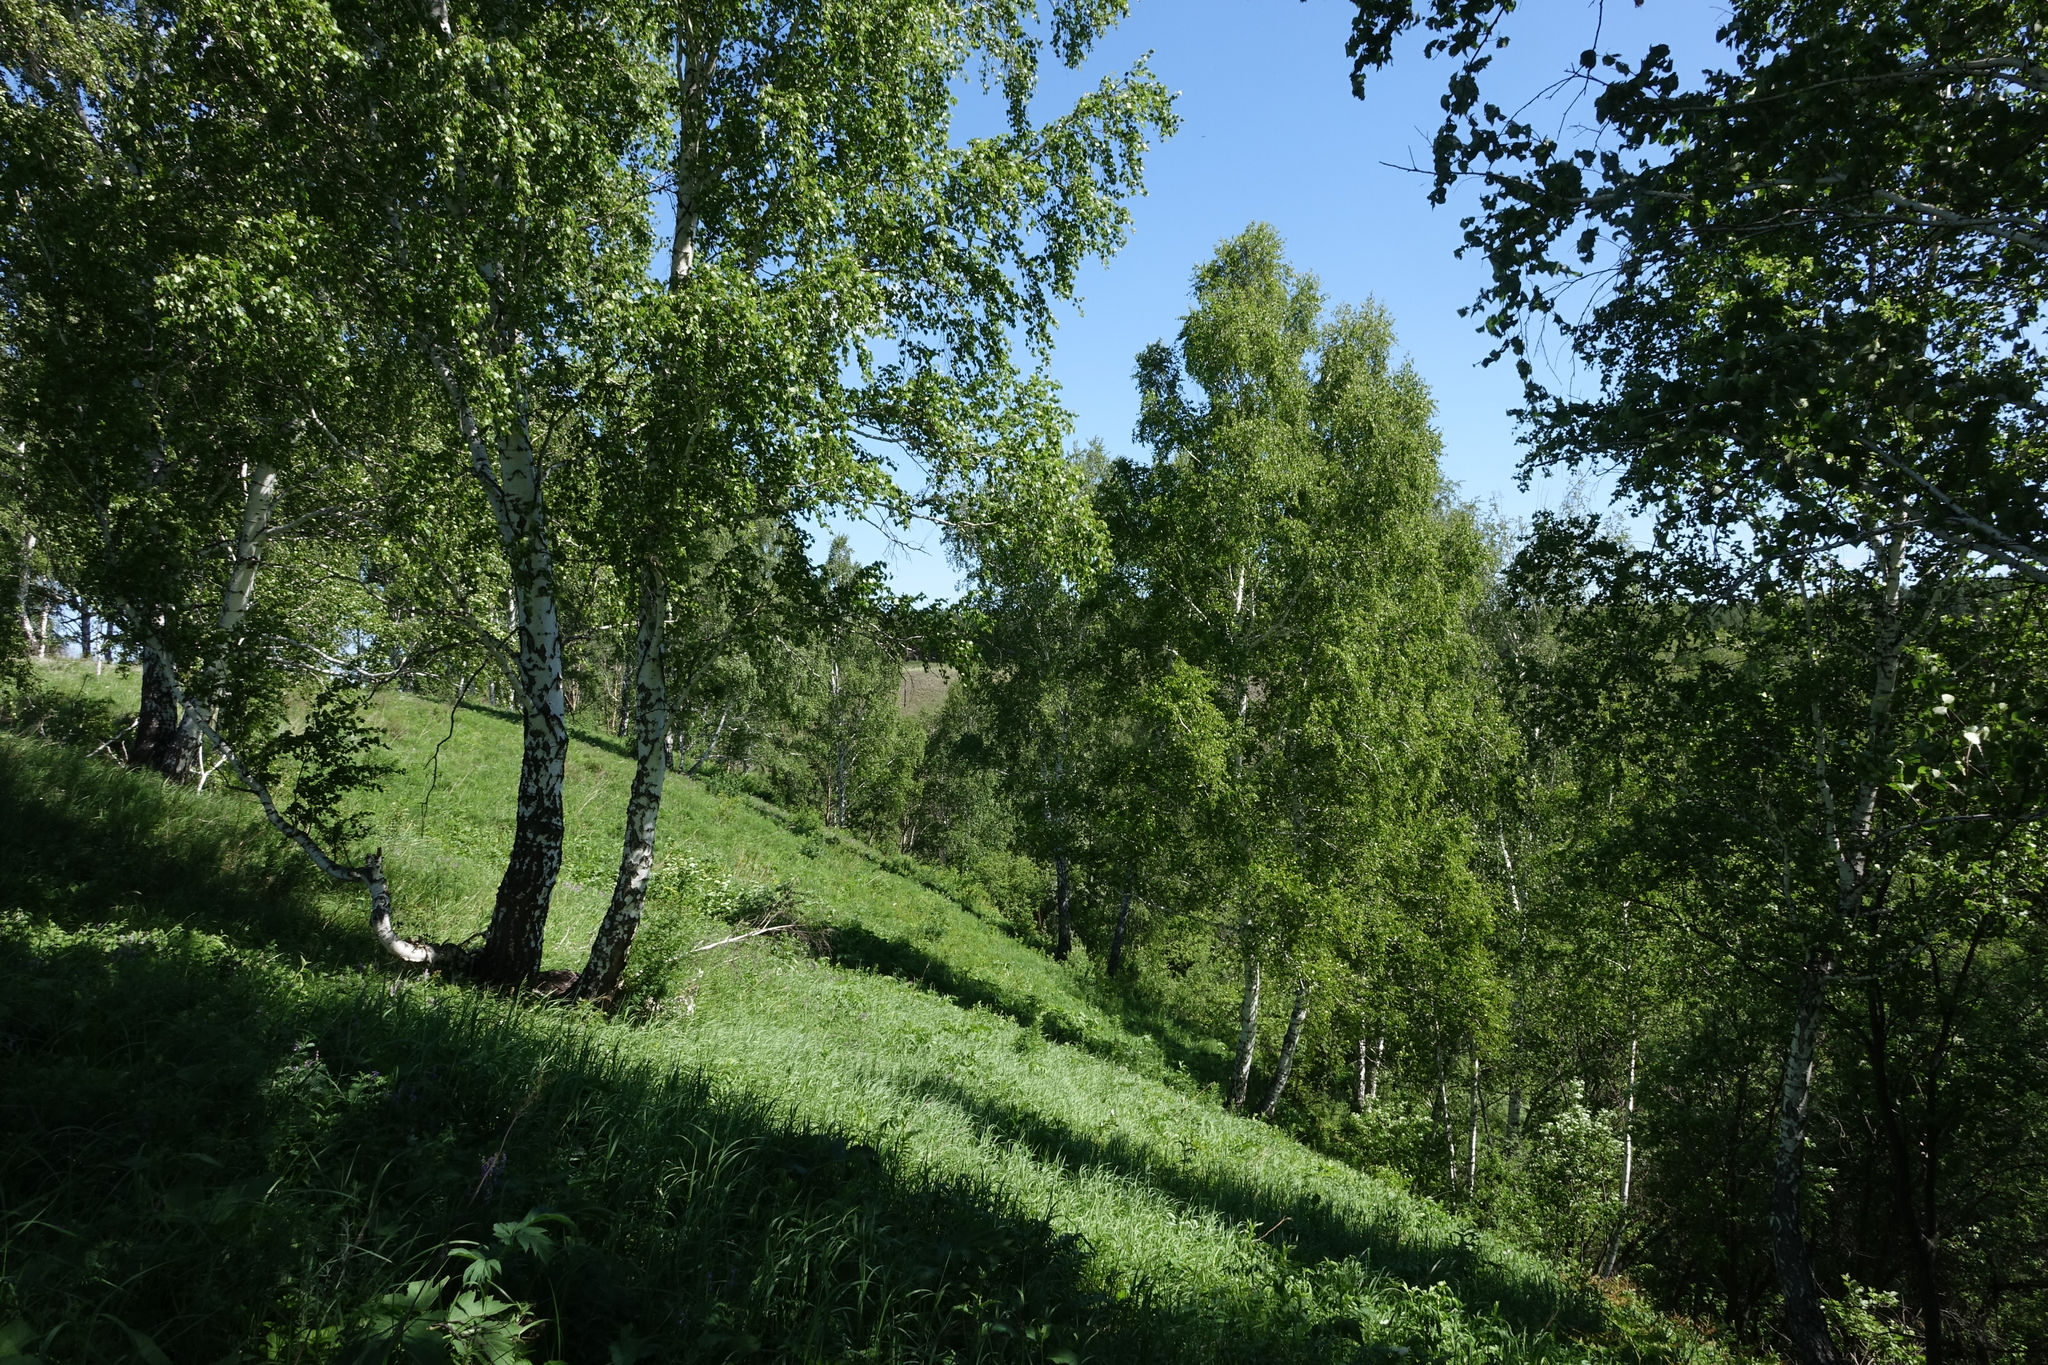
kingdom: Plantae
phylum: Tracheophyta
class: Magnoliopsida
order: Fagales
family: Betulaceae
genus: Betula
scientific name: Betula pendula
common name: Silver birch
